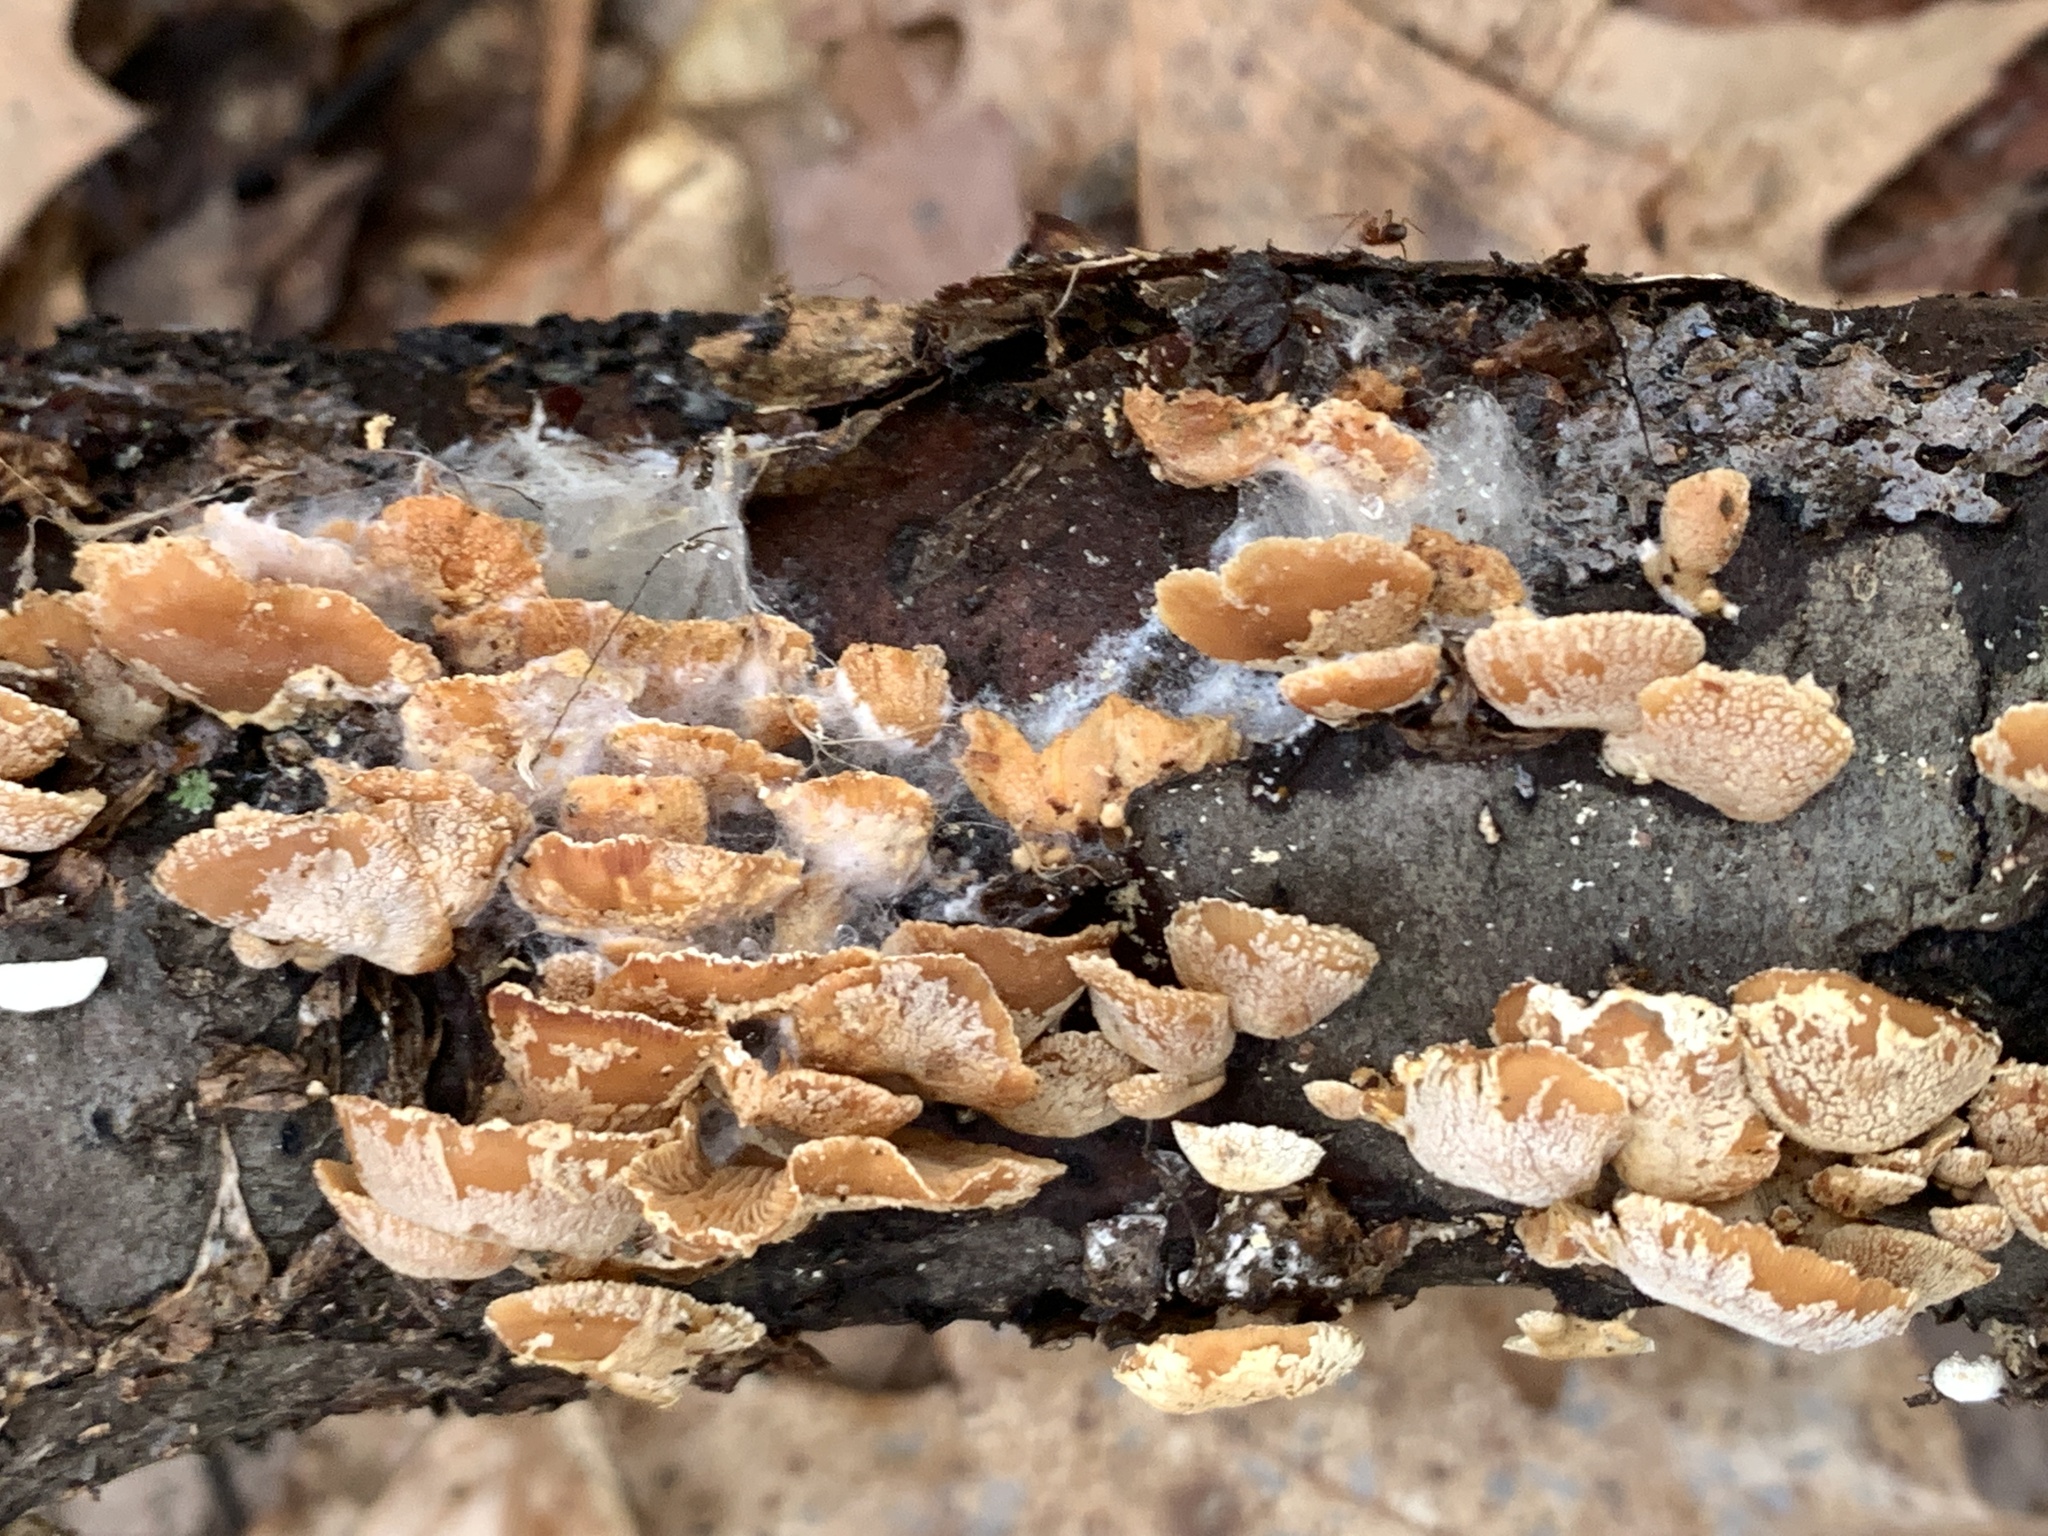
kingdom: Fungi
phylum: Basidiomycota
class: Agaricomycetes
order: Agaricales
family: Mycenaceae
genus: Panellus
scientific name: Panellus stipticus
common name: Bitter oysterling
